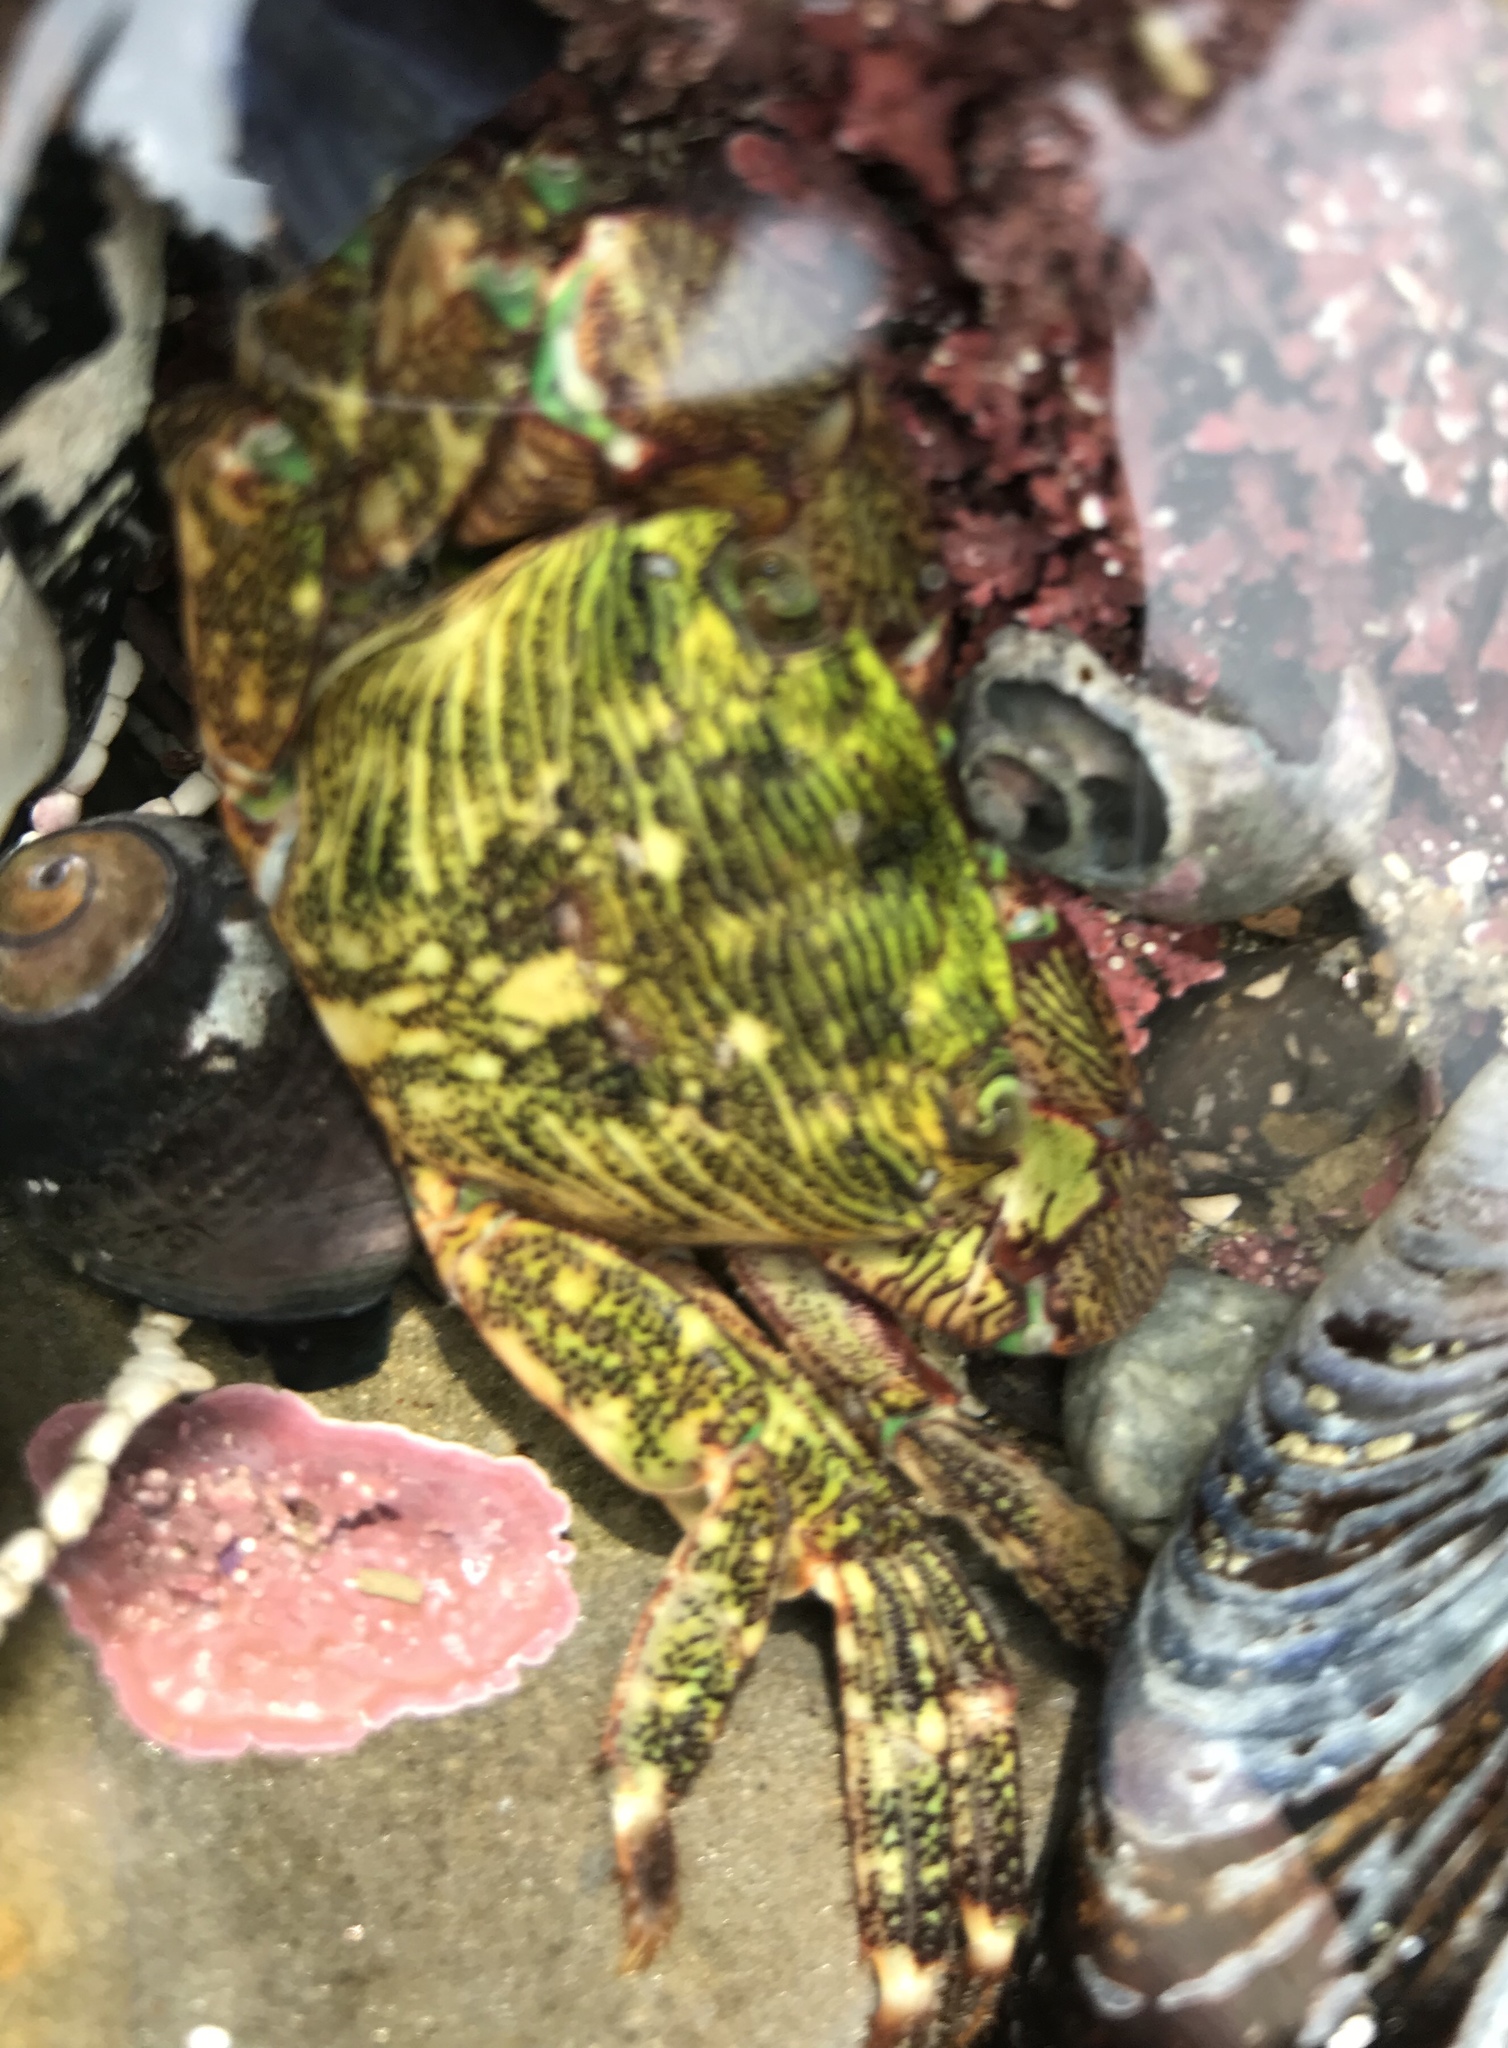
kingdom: Animalia
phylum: Arthropoda
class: Malacostraca
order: Decapoda
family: Grapsidae
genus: Pachygrapsus
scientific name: Pachygrapsus crassipes
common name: Striped shore crab
